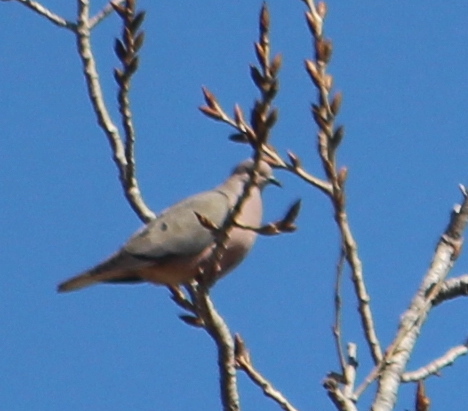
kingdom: Animalia
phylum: Chordata
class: Aves
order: Columbiformes
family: Columbidae
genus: Zenaida
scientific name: Zenaida auriculata
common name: Eared dove
